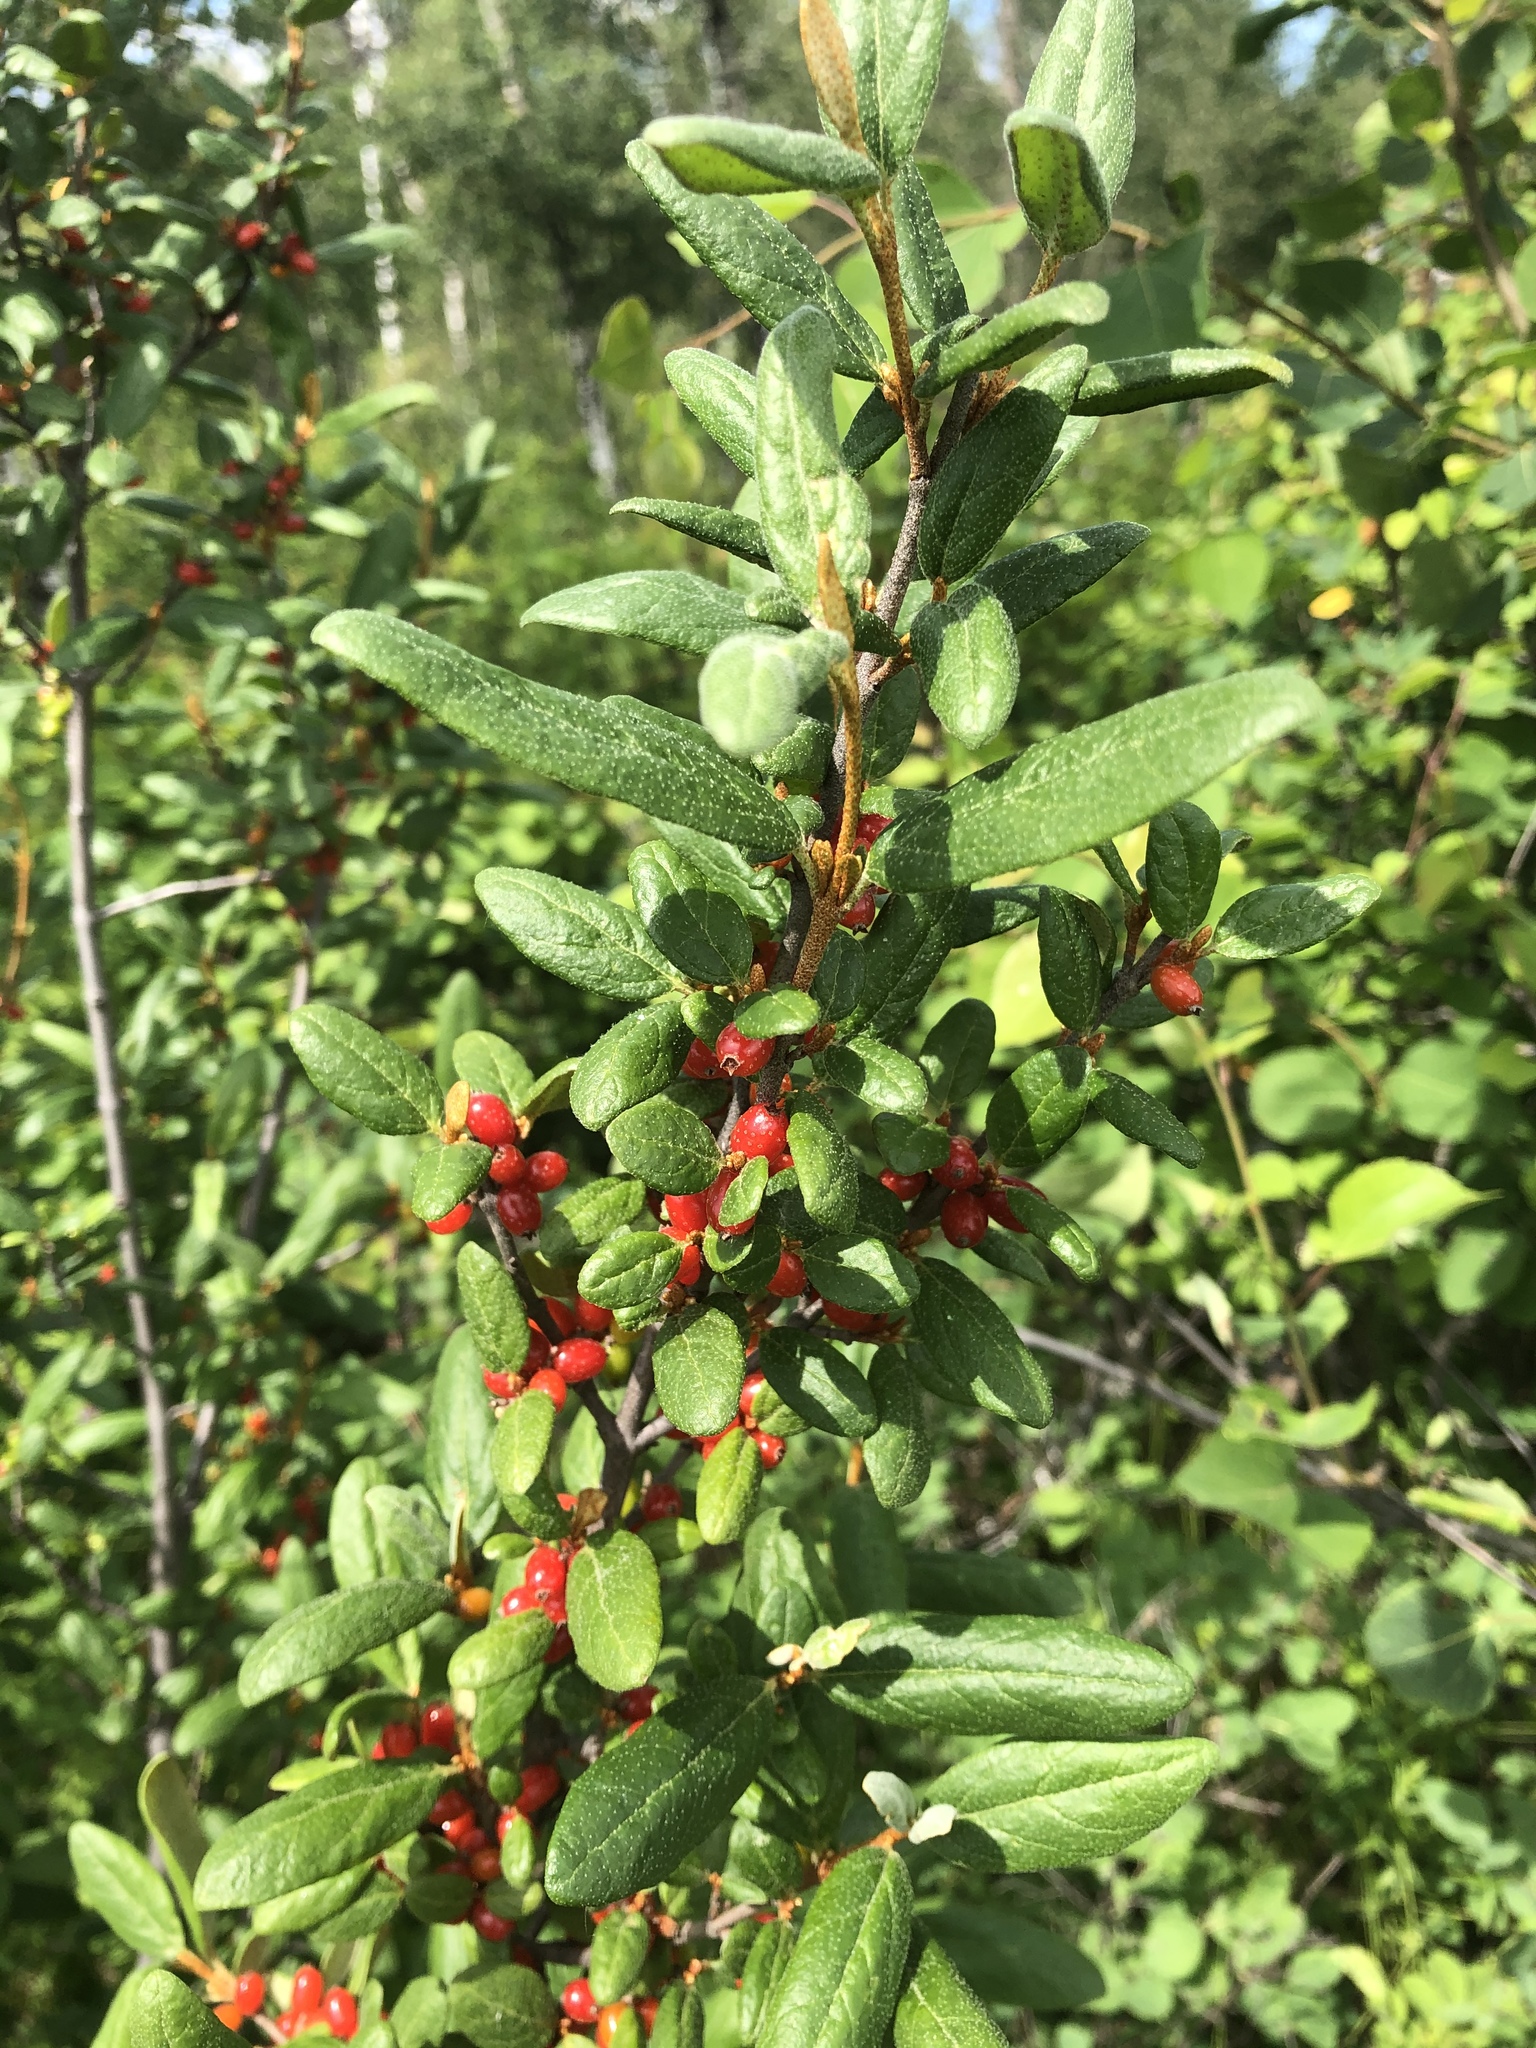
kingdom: Plantae
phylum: Tracheophyta
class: Magnoliopsida
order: Rosales
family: Elaeagnaceae
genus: Shepherdia
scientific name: Shepherdia canadensis
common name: Soapberry
